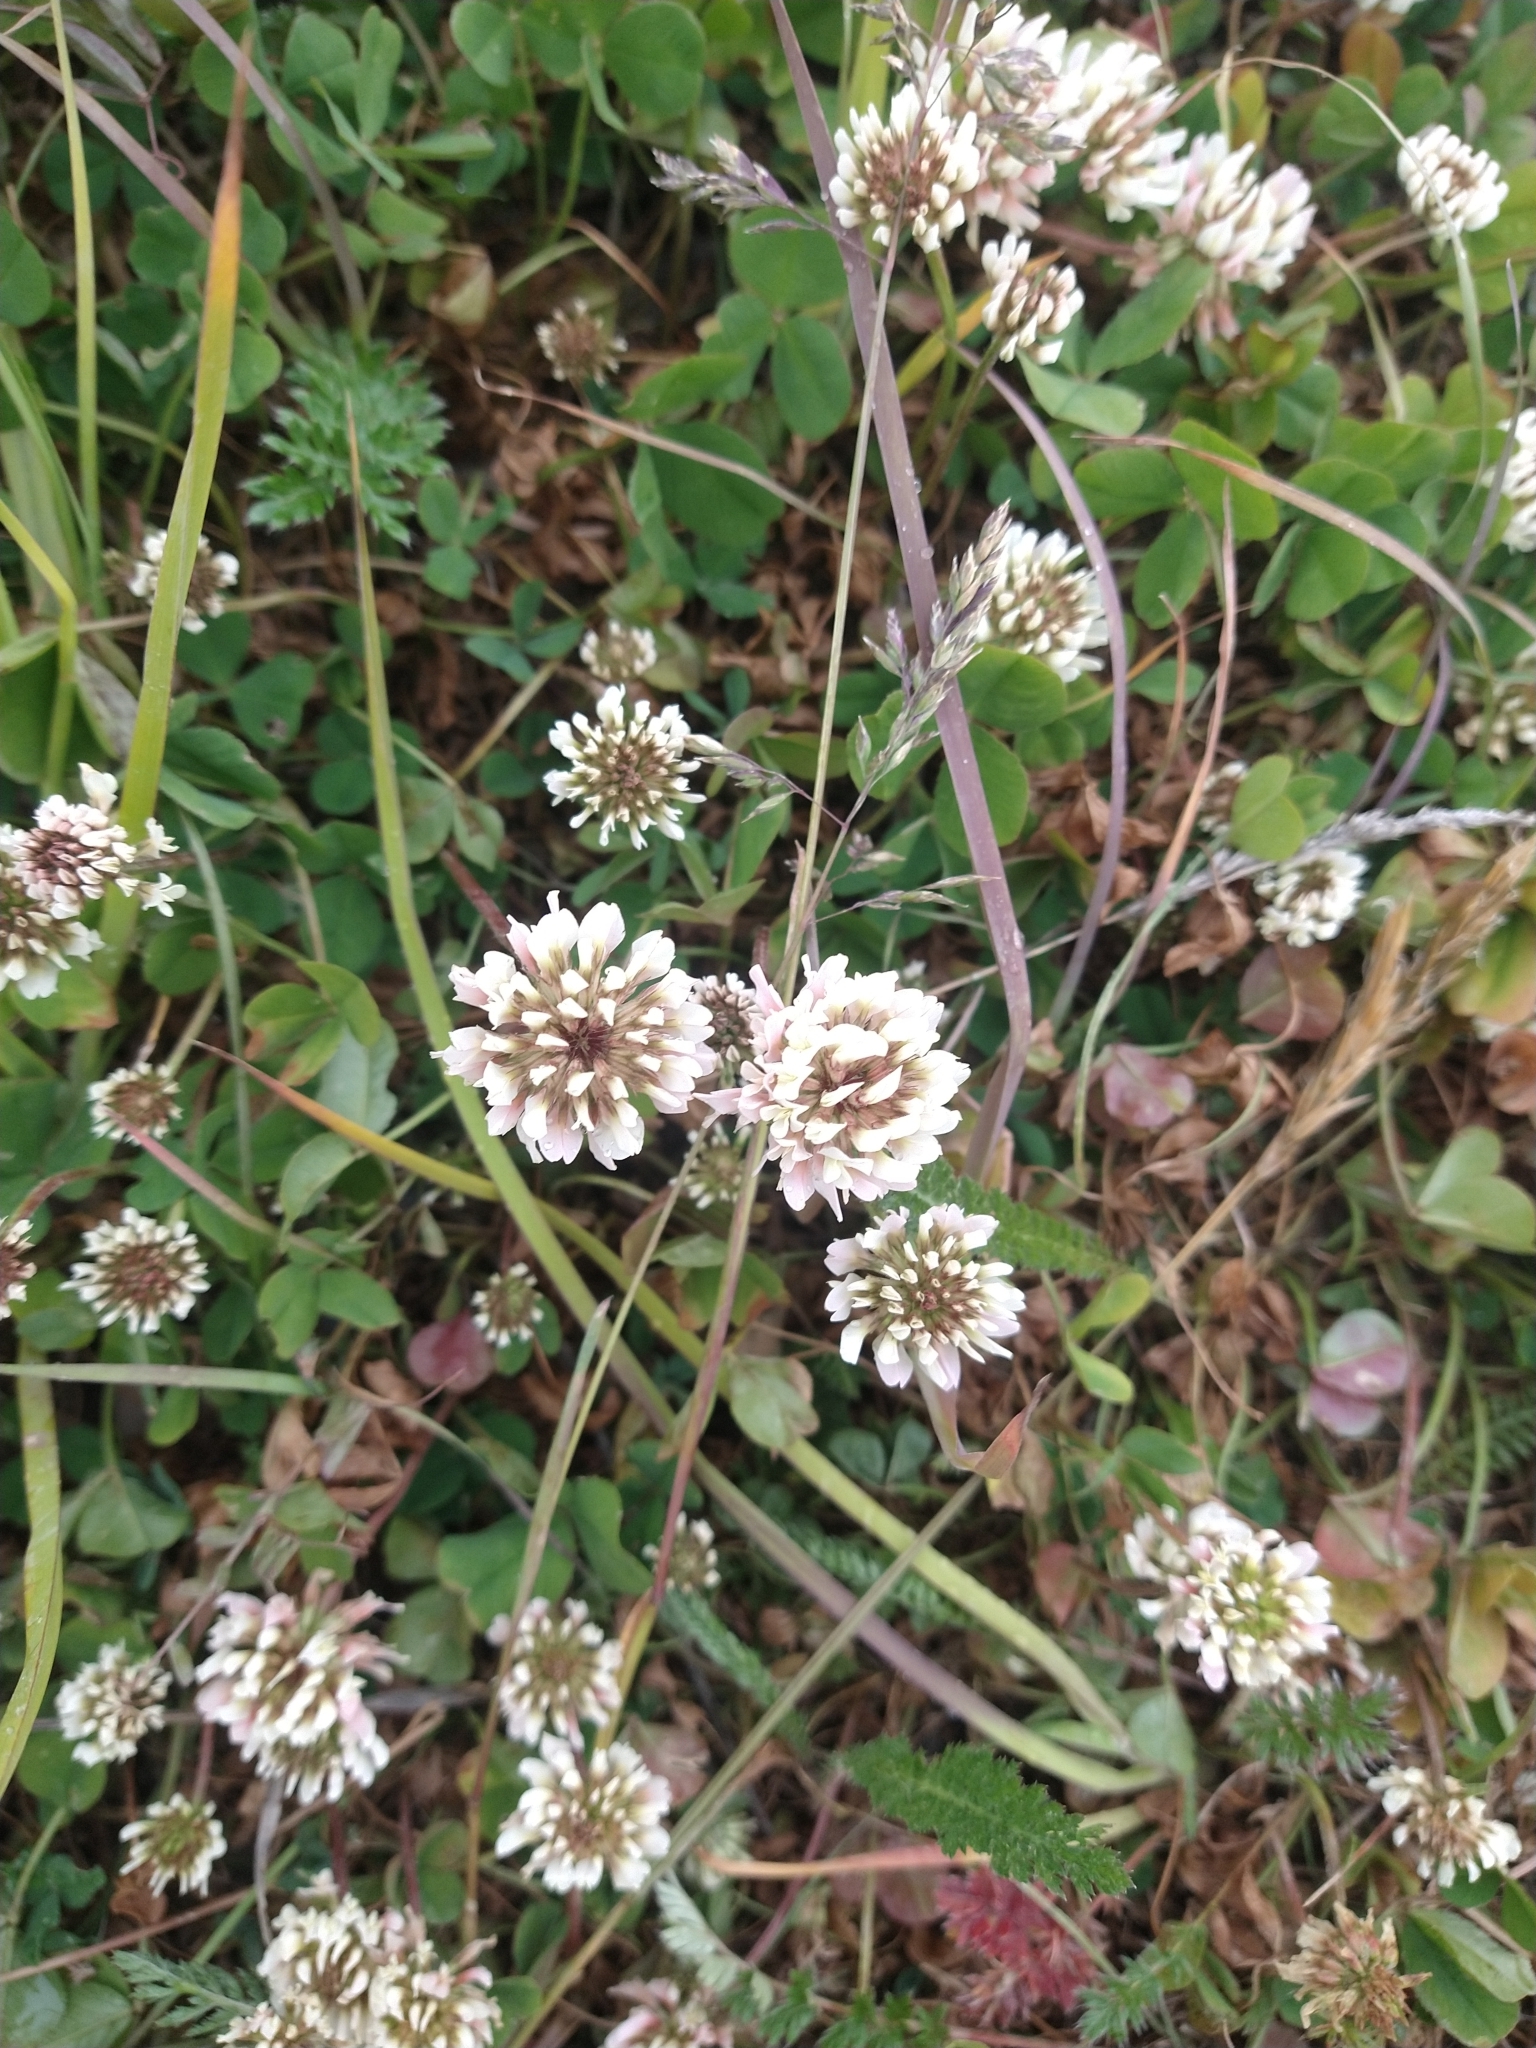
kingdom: Plantae
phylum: Tracheophyta
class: Magnoliopsida
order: Fabales
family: Fabaceae
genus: Trifolium
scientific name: Trifolium repens
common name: White clover
